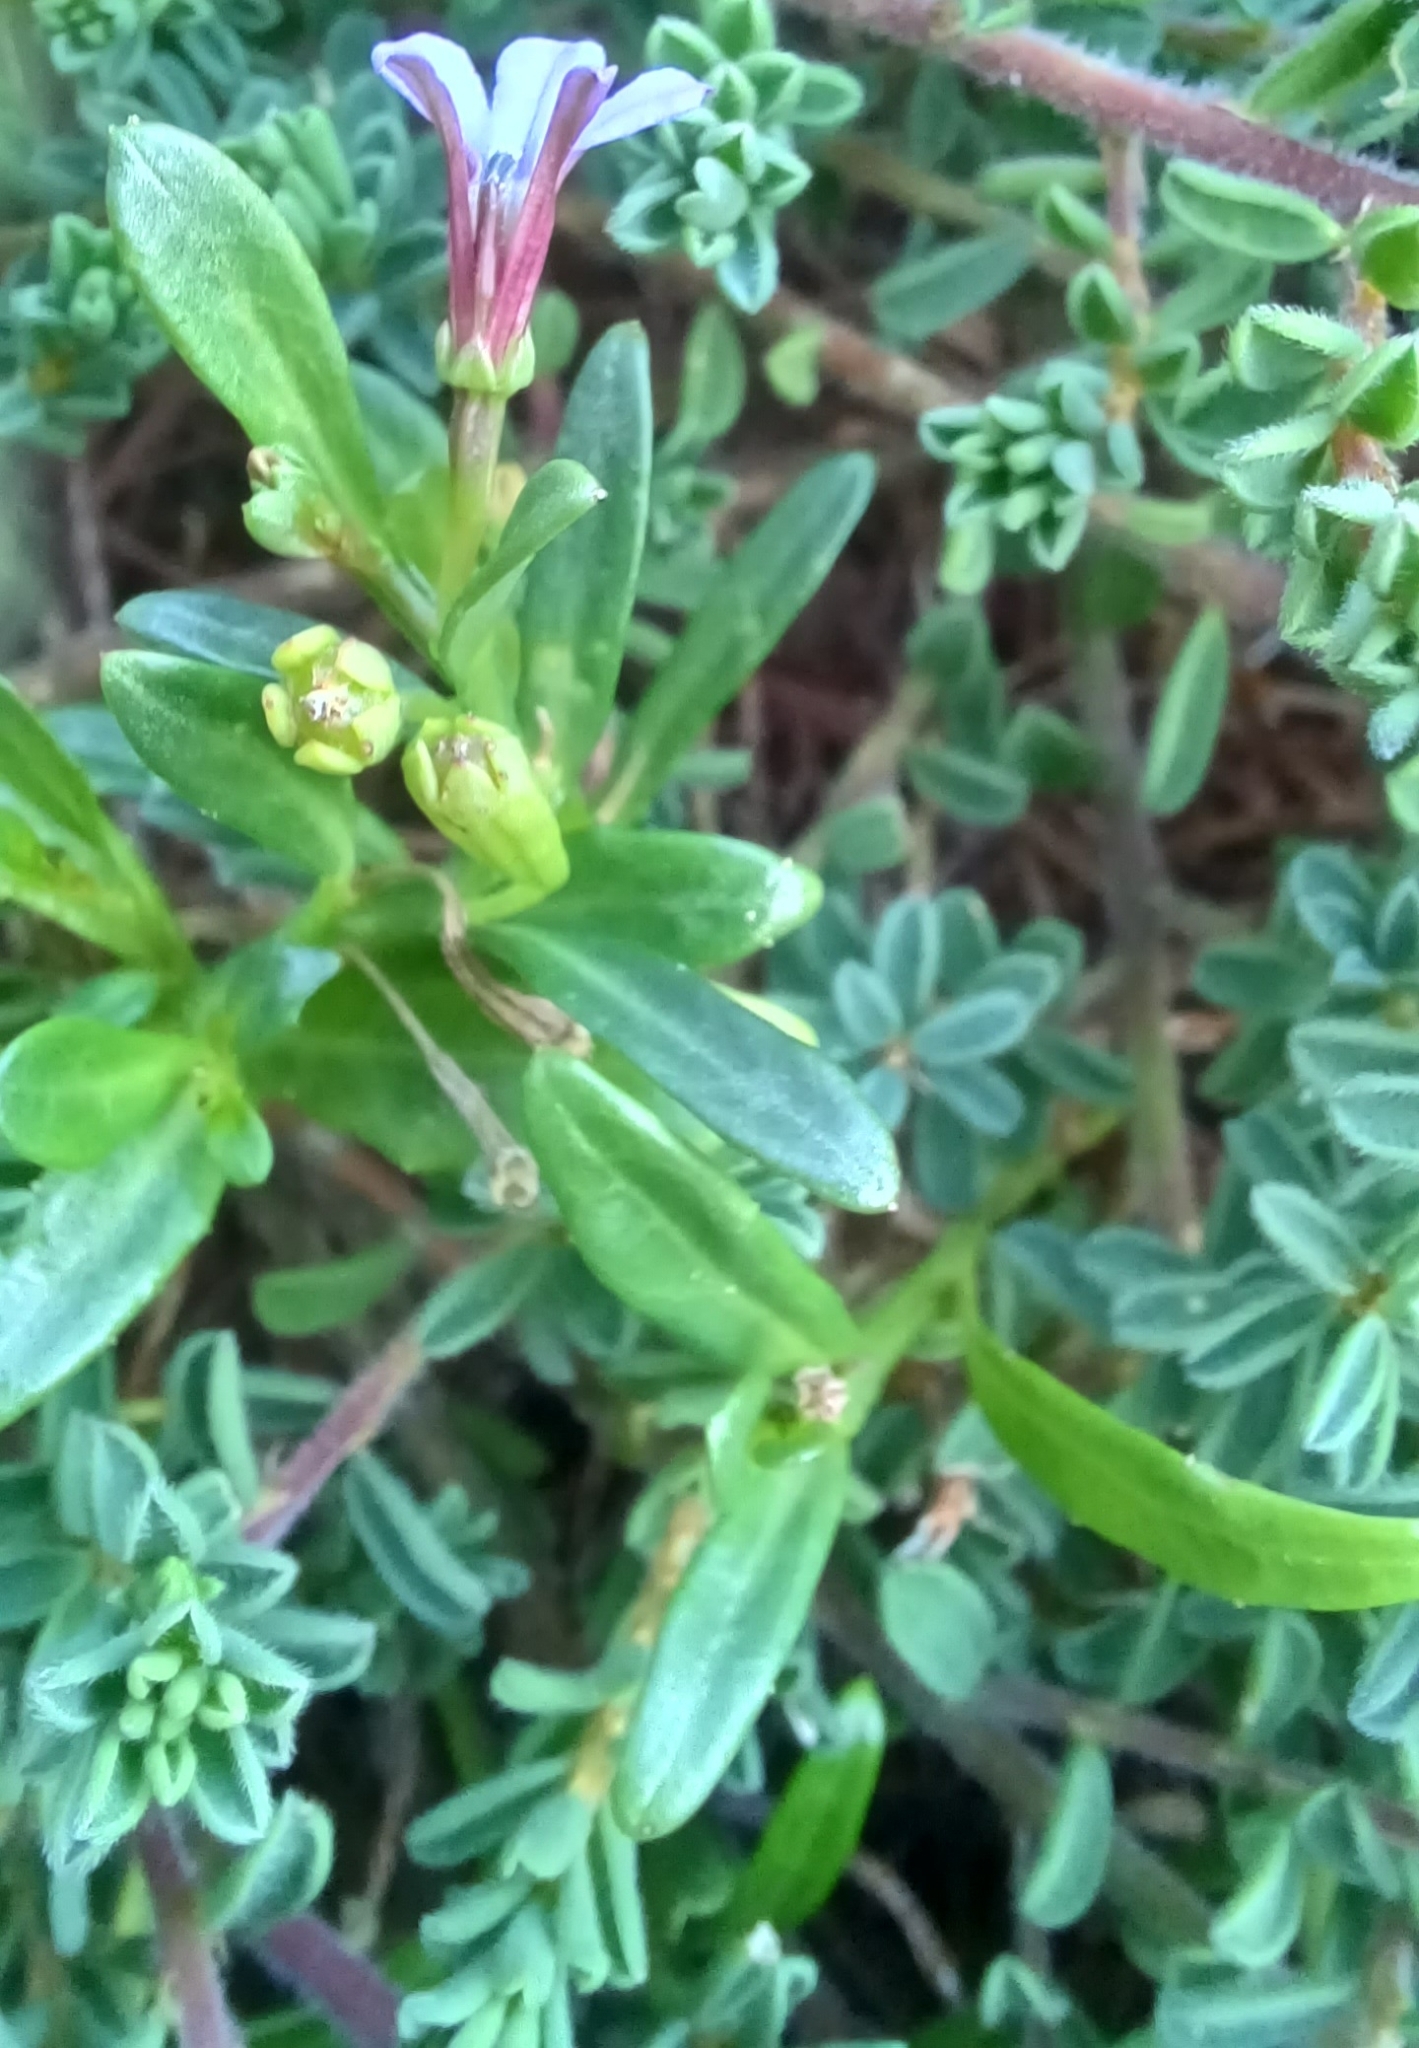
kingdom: Plantae
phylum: Tracheophyta
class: Magnoliopsida
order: Asterales
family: Campanulaceae
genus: Lobelia
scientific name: Lobelia anceps
